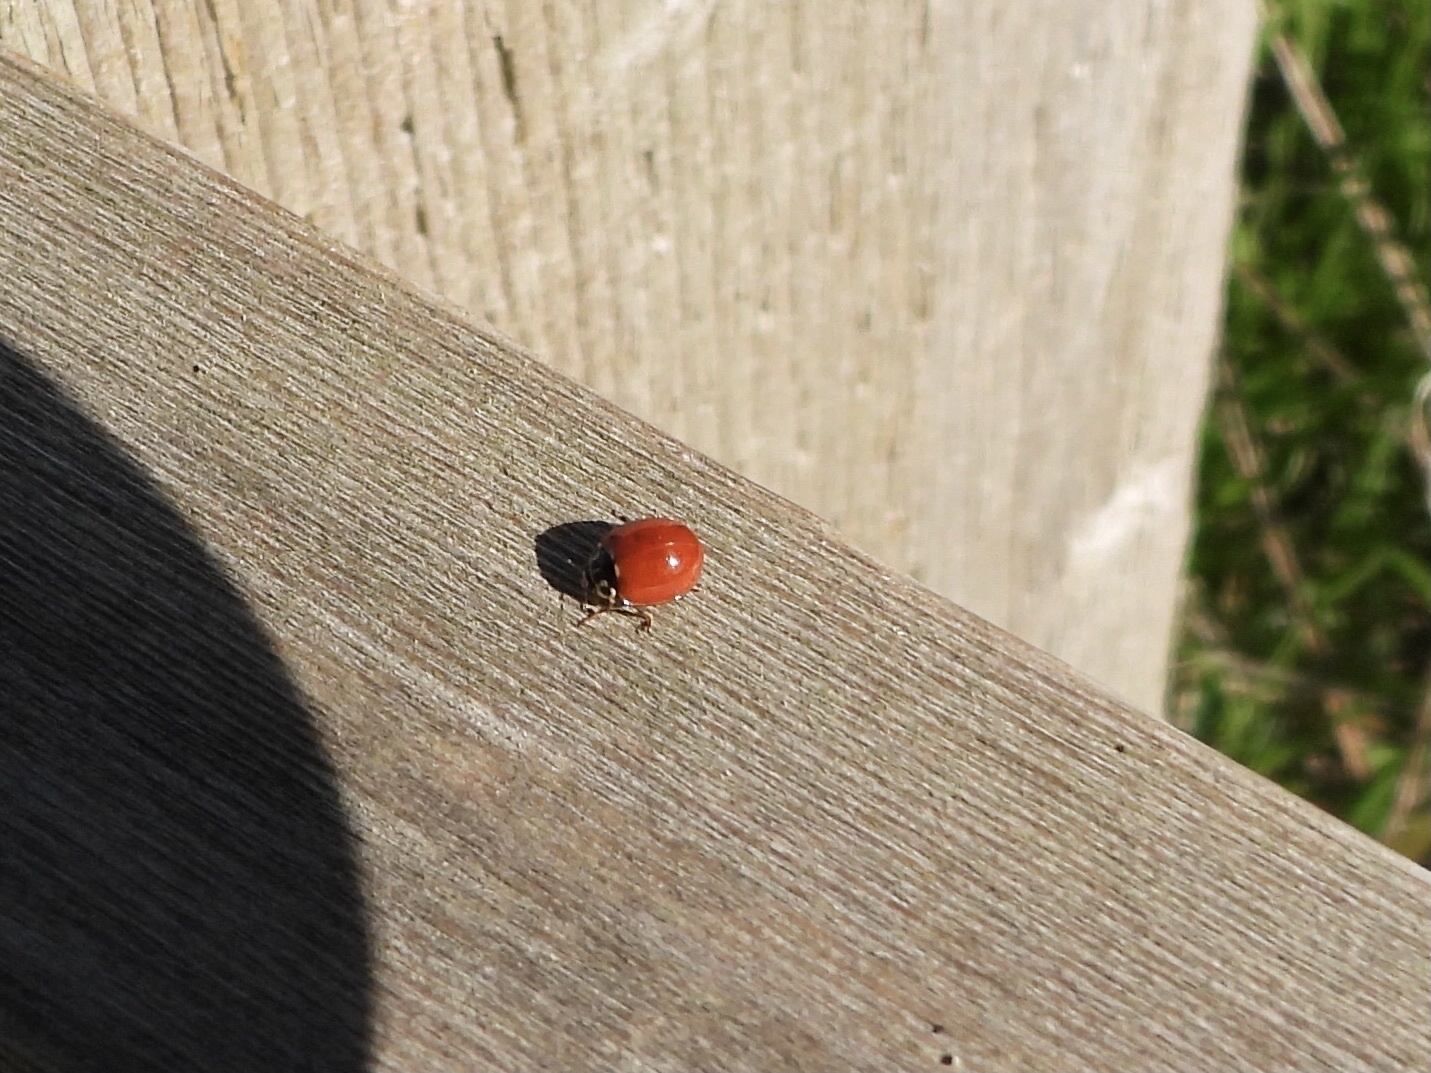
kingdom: Animalia
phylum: Arthropoda
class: Insecta
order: Coleoptera
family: Coccinellidae
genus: Cycloneda
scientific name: Cycloneda polita
